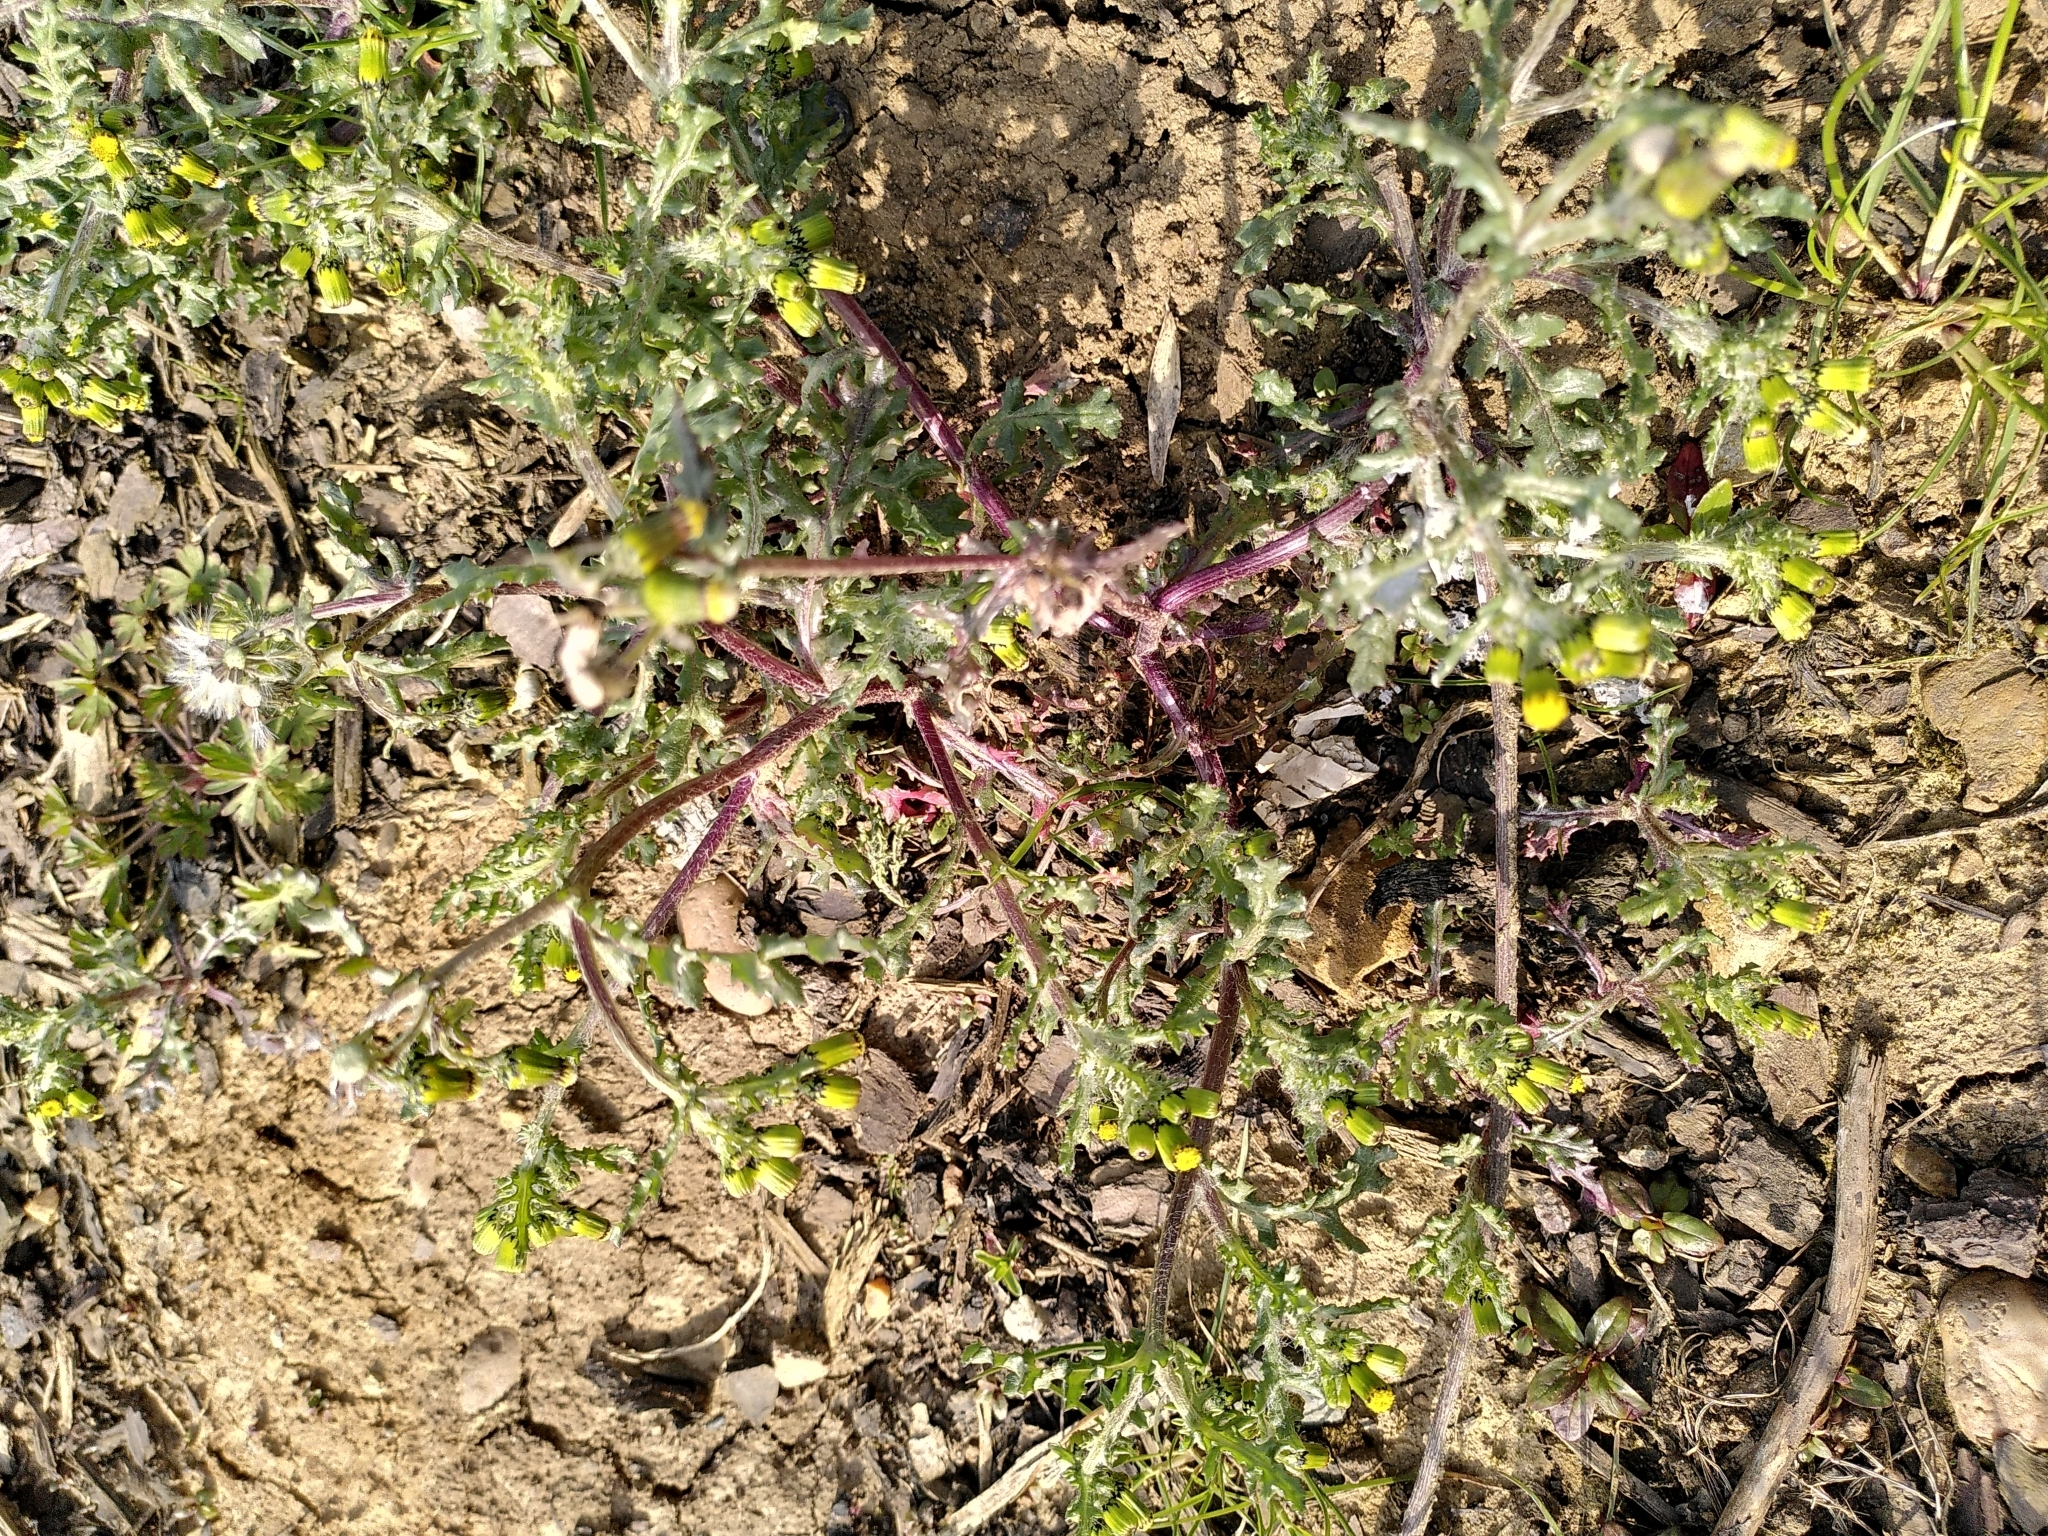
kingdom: Plantae
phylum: Tracheophyta
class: Magnoliopsida
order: Asterales
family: Asteraceae
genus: Senecio
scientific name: Senecio vulgaris
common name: Old-man-in-the-spring
